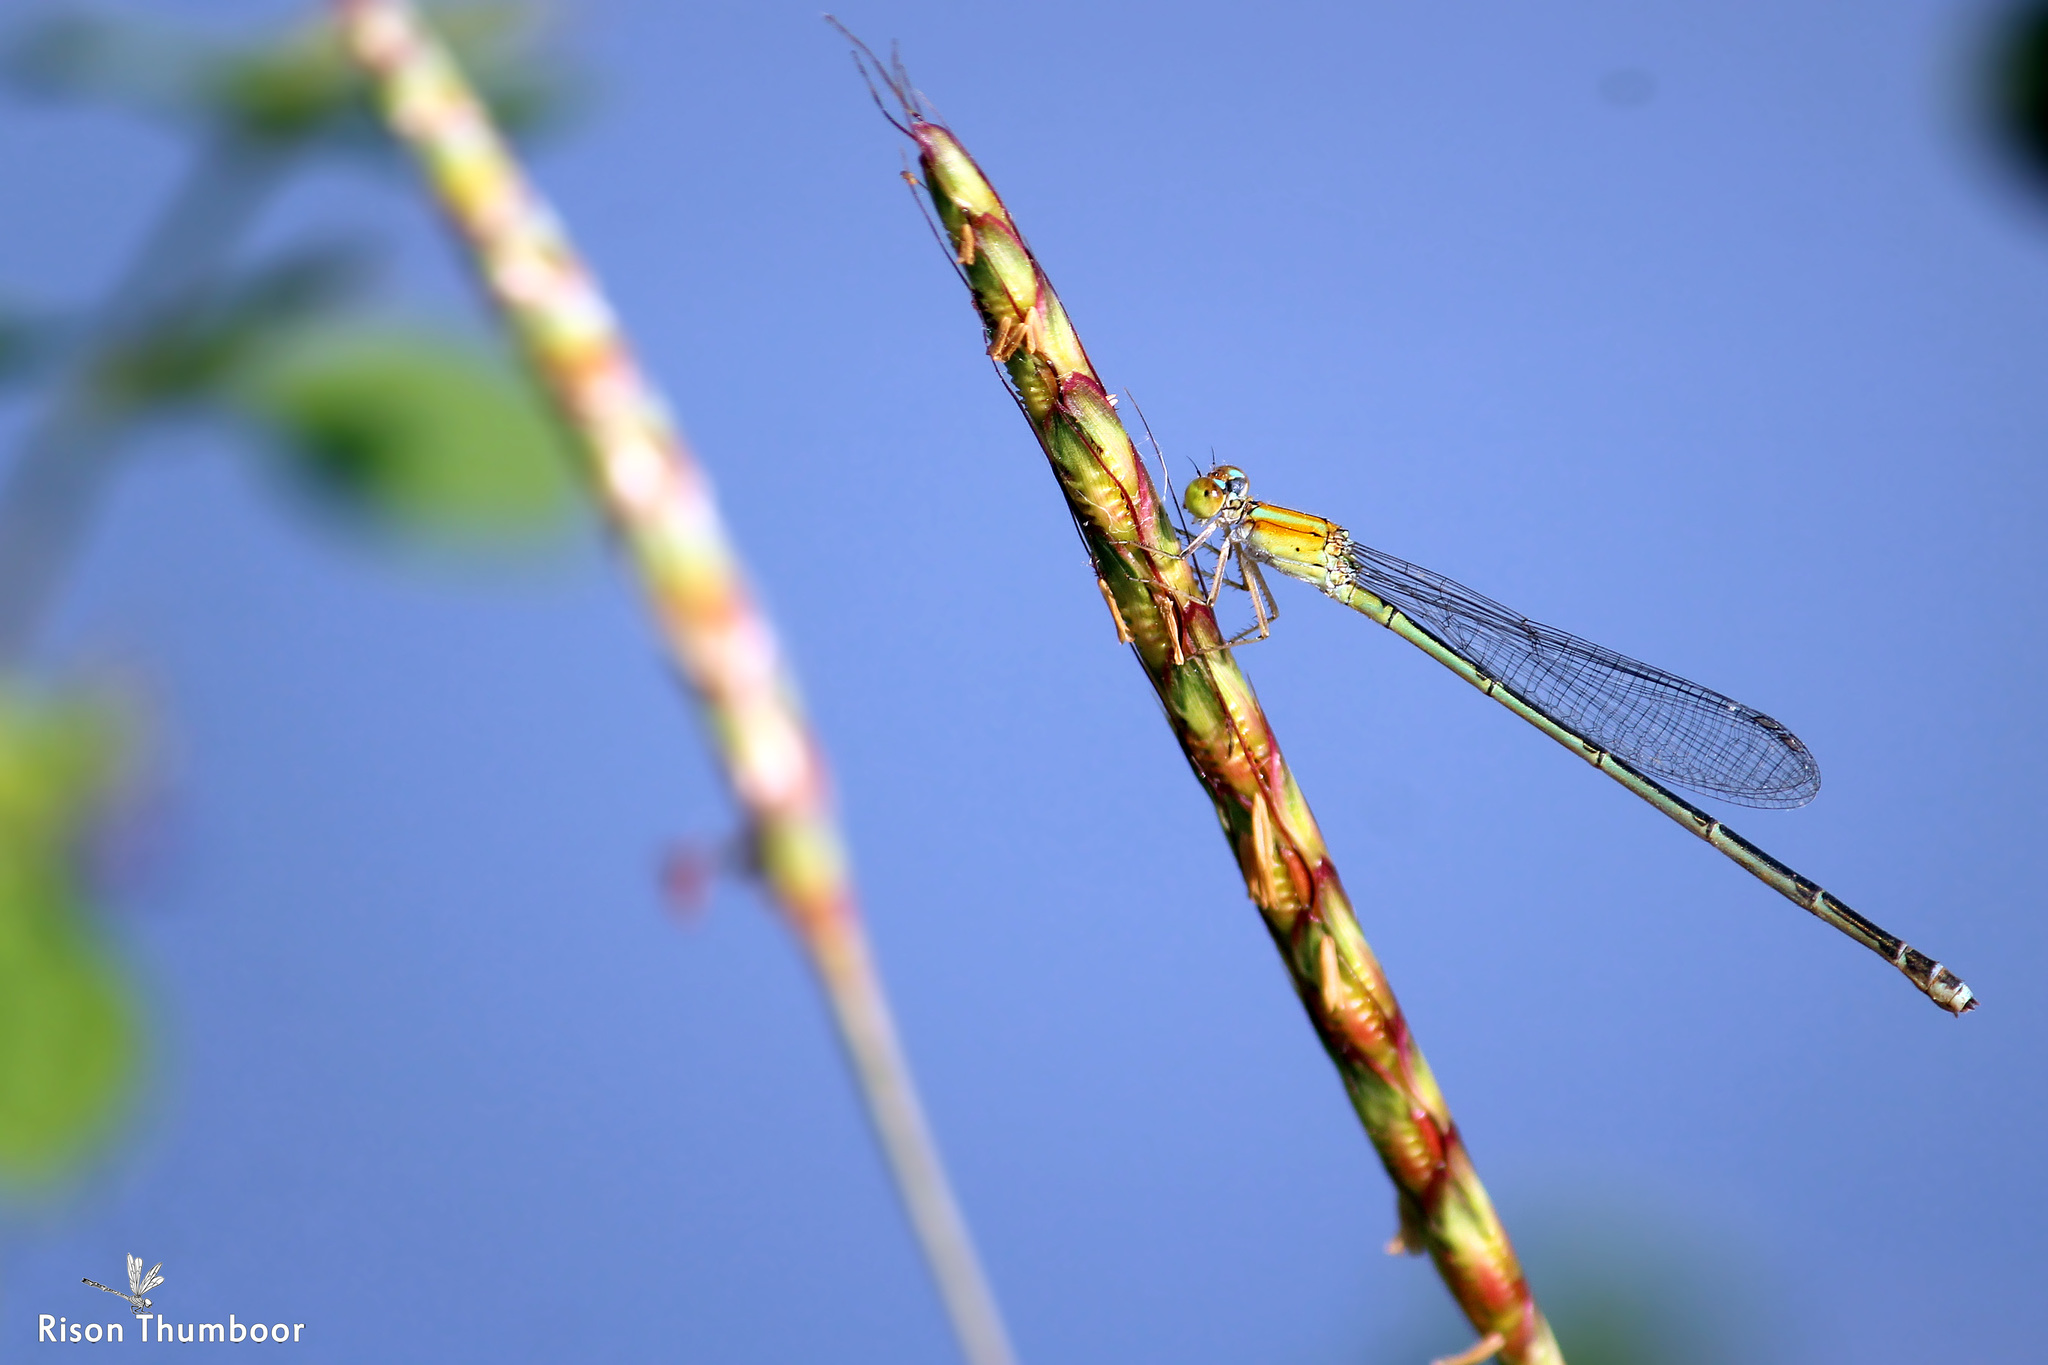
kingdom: Animalia
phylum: Arthropoda
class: Insecta
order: Odonata
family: Coenagrionidae
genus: Pseudagrion
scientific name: Pseudagrion microcephalum
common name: Blue riverdamsel
